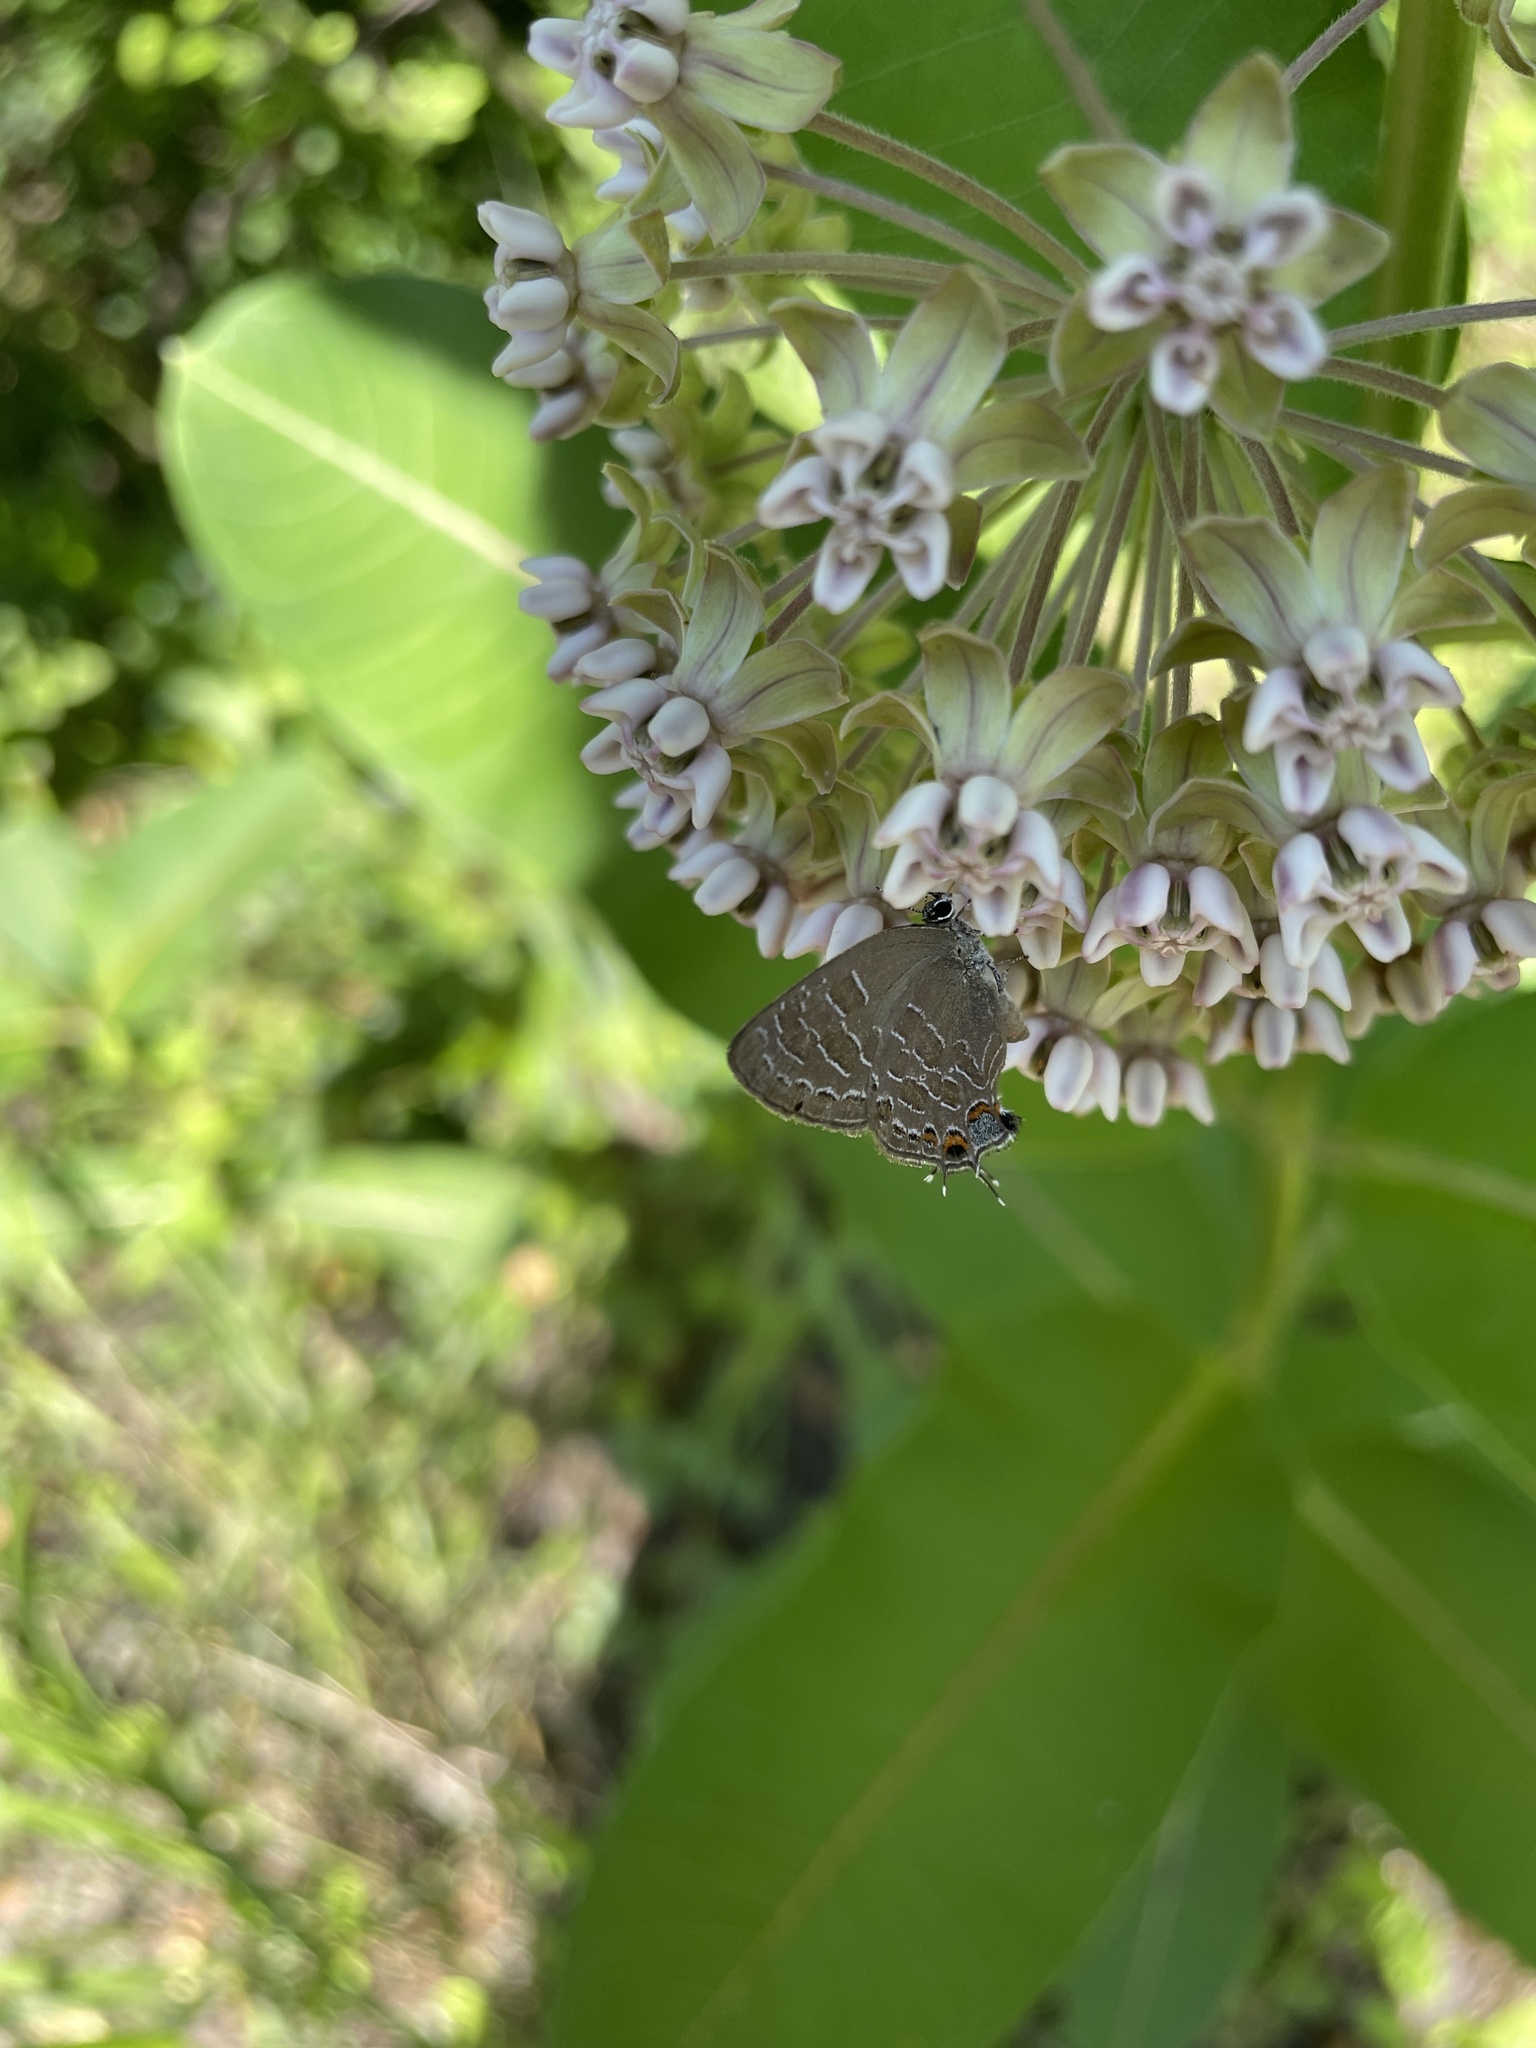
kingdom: Animalia
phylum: Arthropoda
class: Insecta
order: Lepidoptera
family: Lycaenidae
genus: Satyrium
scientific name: Satyrium liparops
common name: Striped hairstreak
